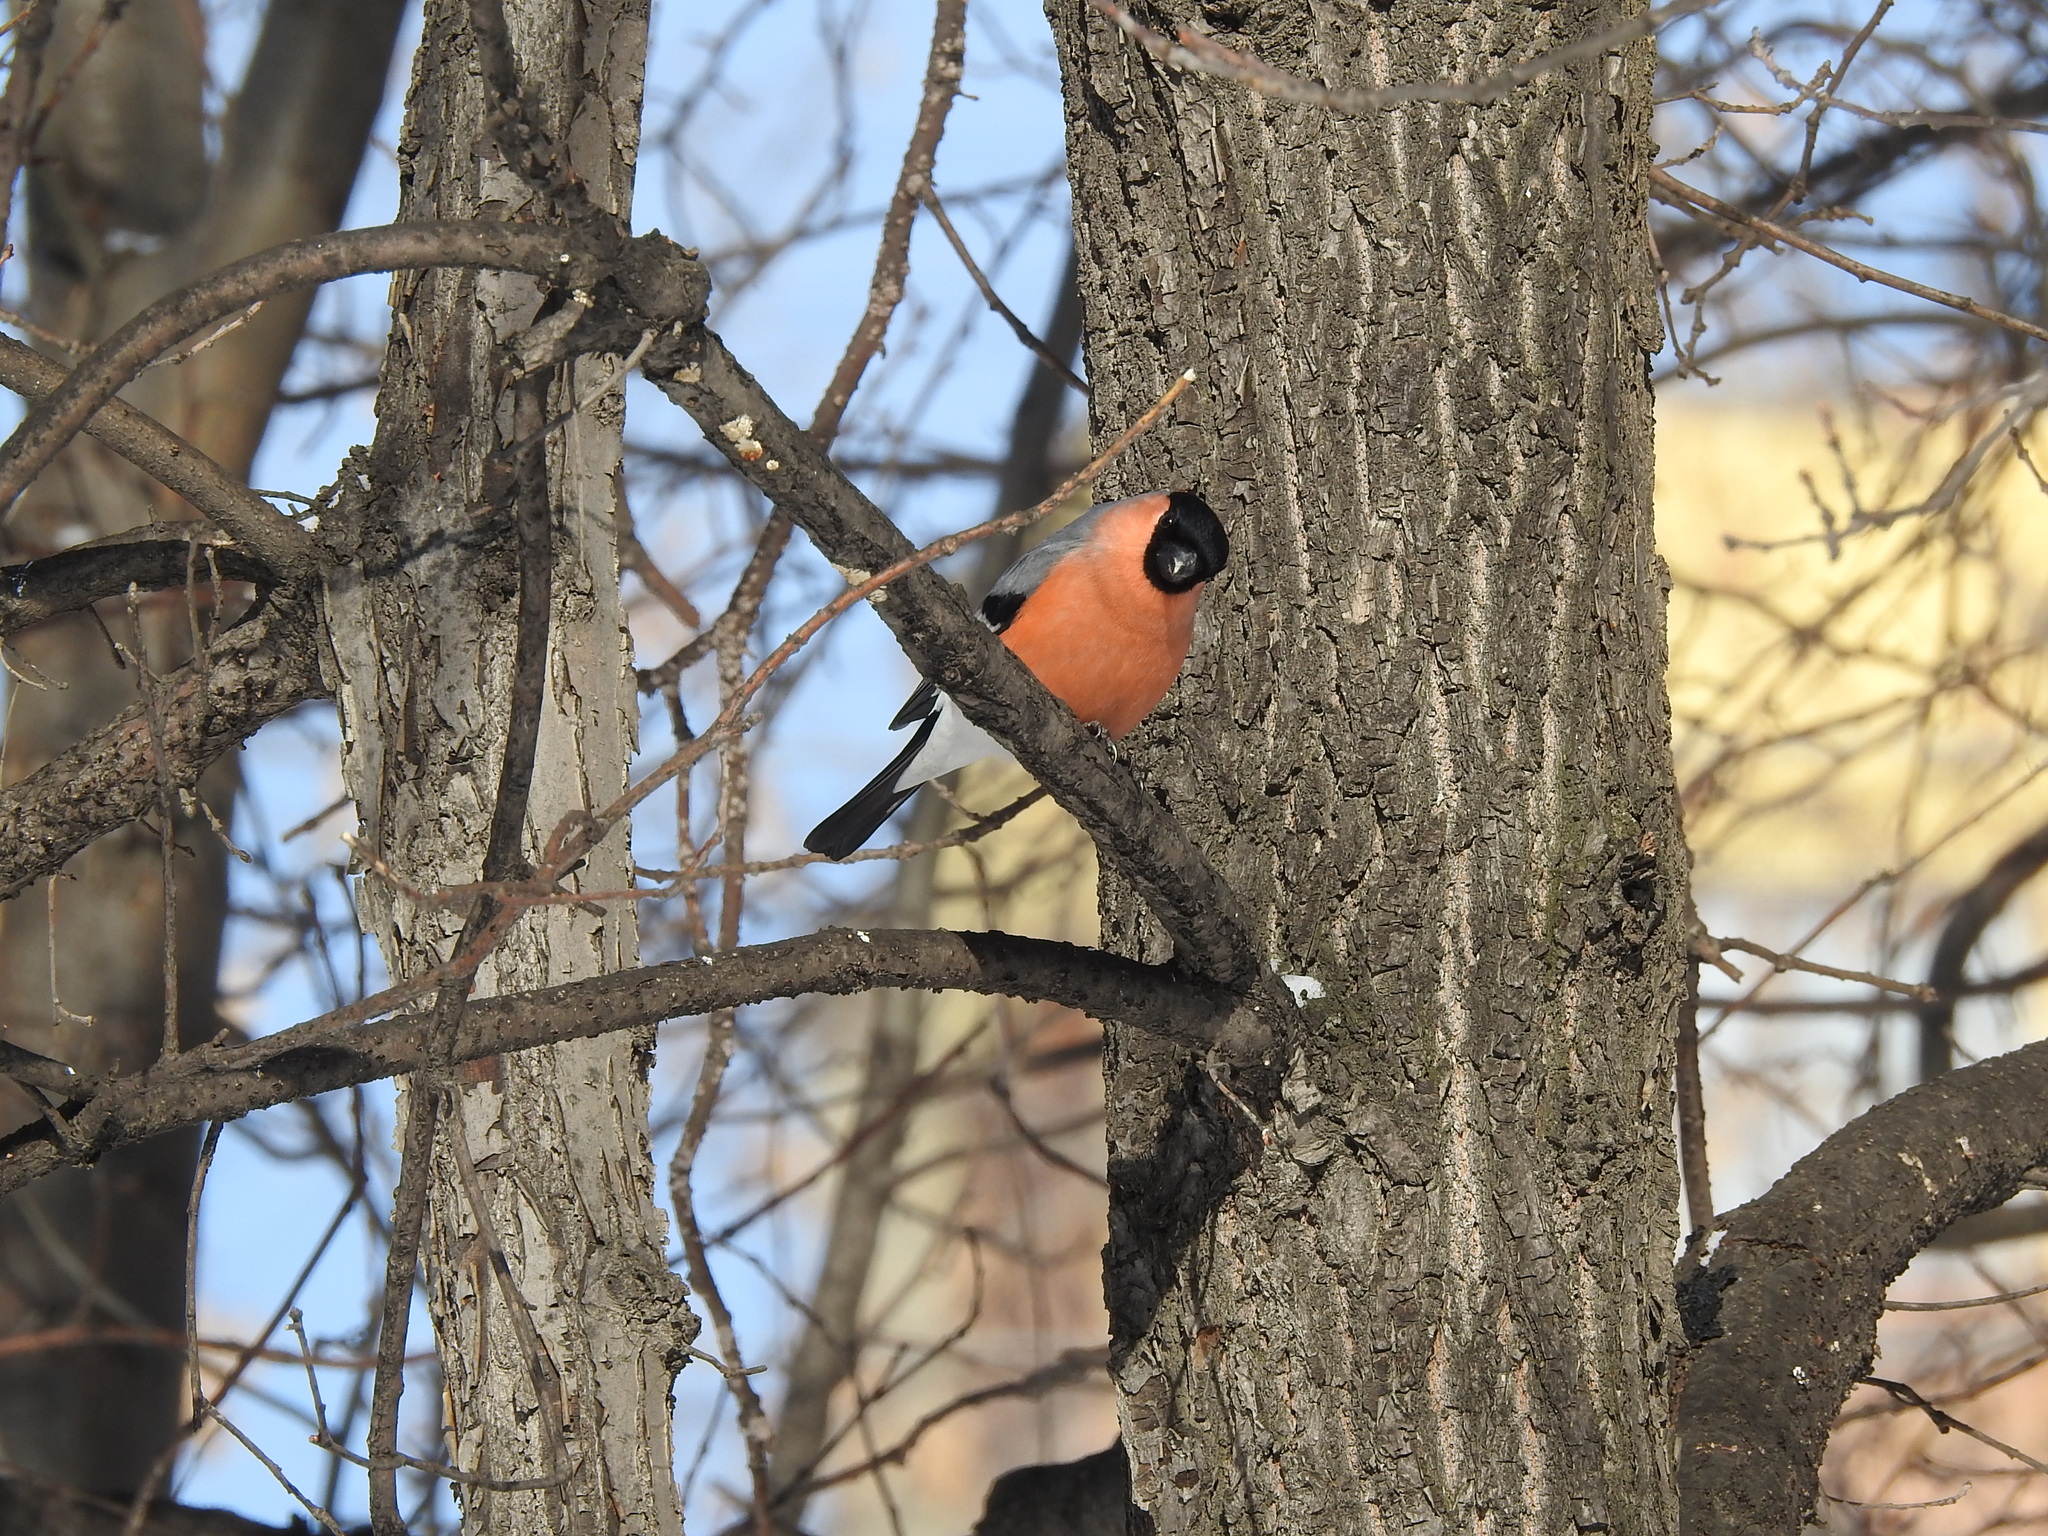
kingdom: Animalia
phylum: Chordata
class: Aves
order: Passeriformes
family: Fringillidae
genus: Pyrrhula
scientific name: Pyrrhula pyrrhula
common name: Eurasian bullfinch
